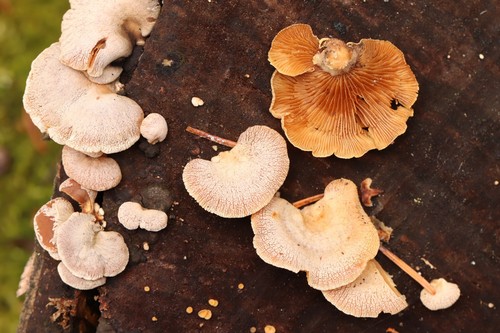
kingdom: Fungi
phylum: Basidiomycota
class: Agaricomycetes
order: Agaricales
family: Mycenaceae
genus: Panellus
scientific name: Panellus stipticus
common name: Bitter oysterling
